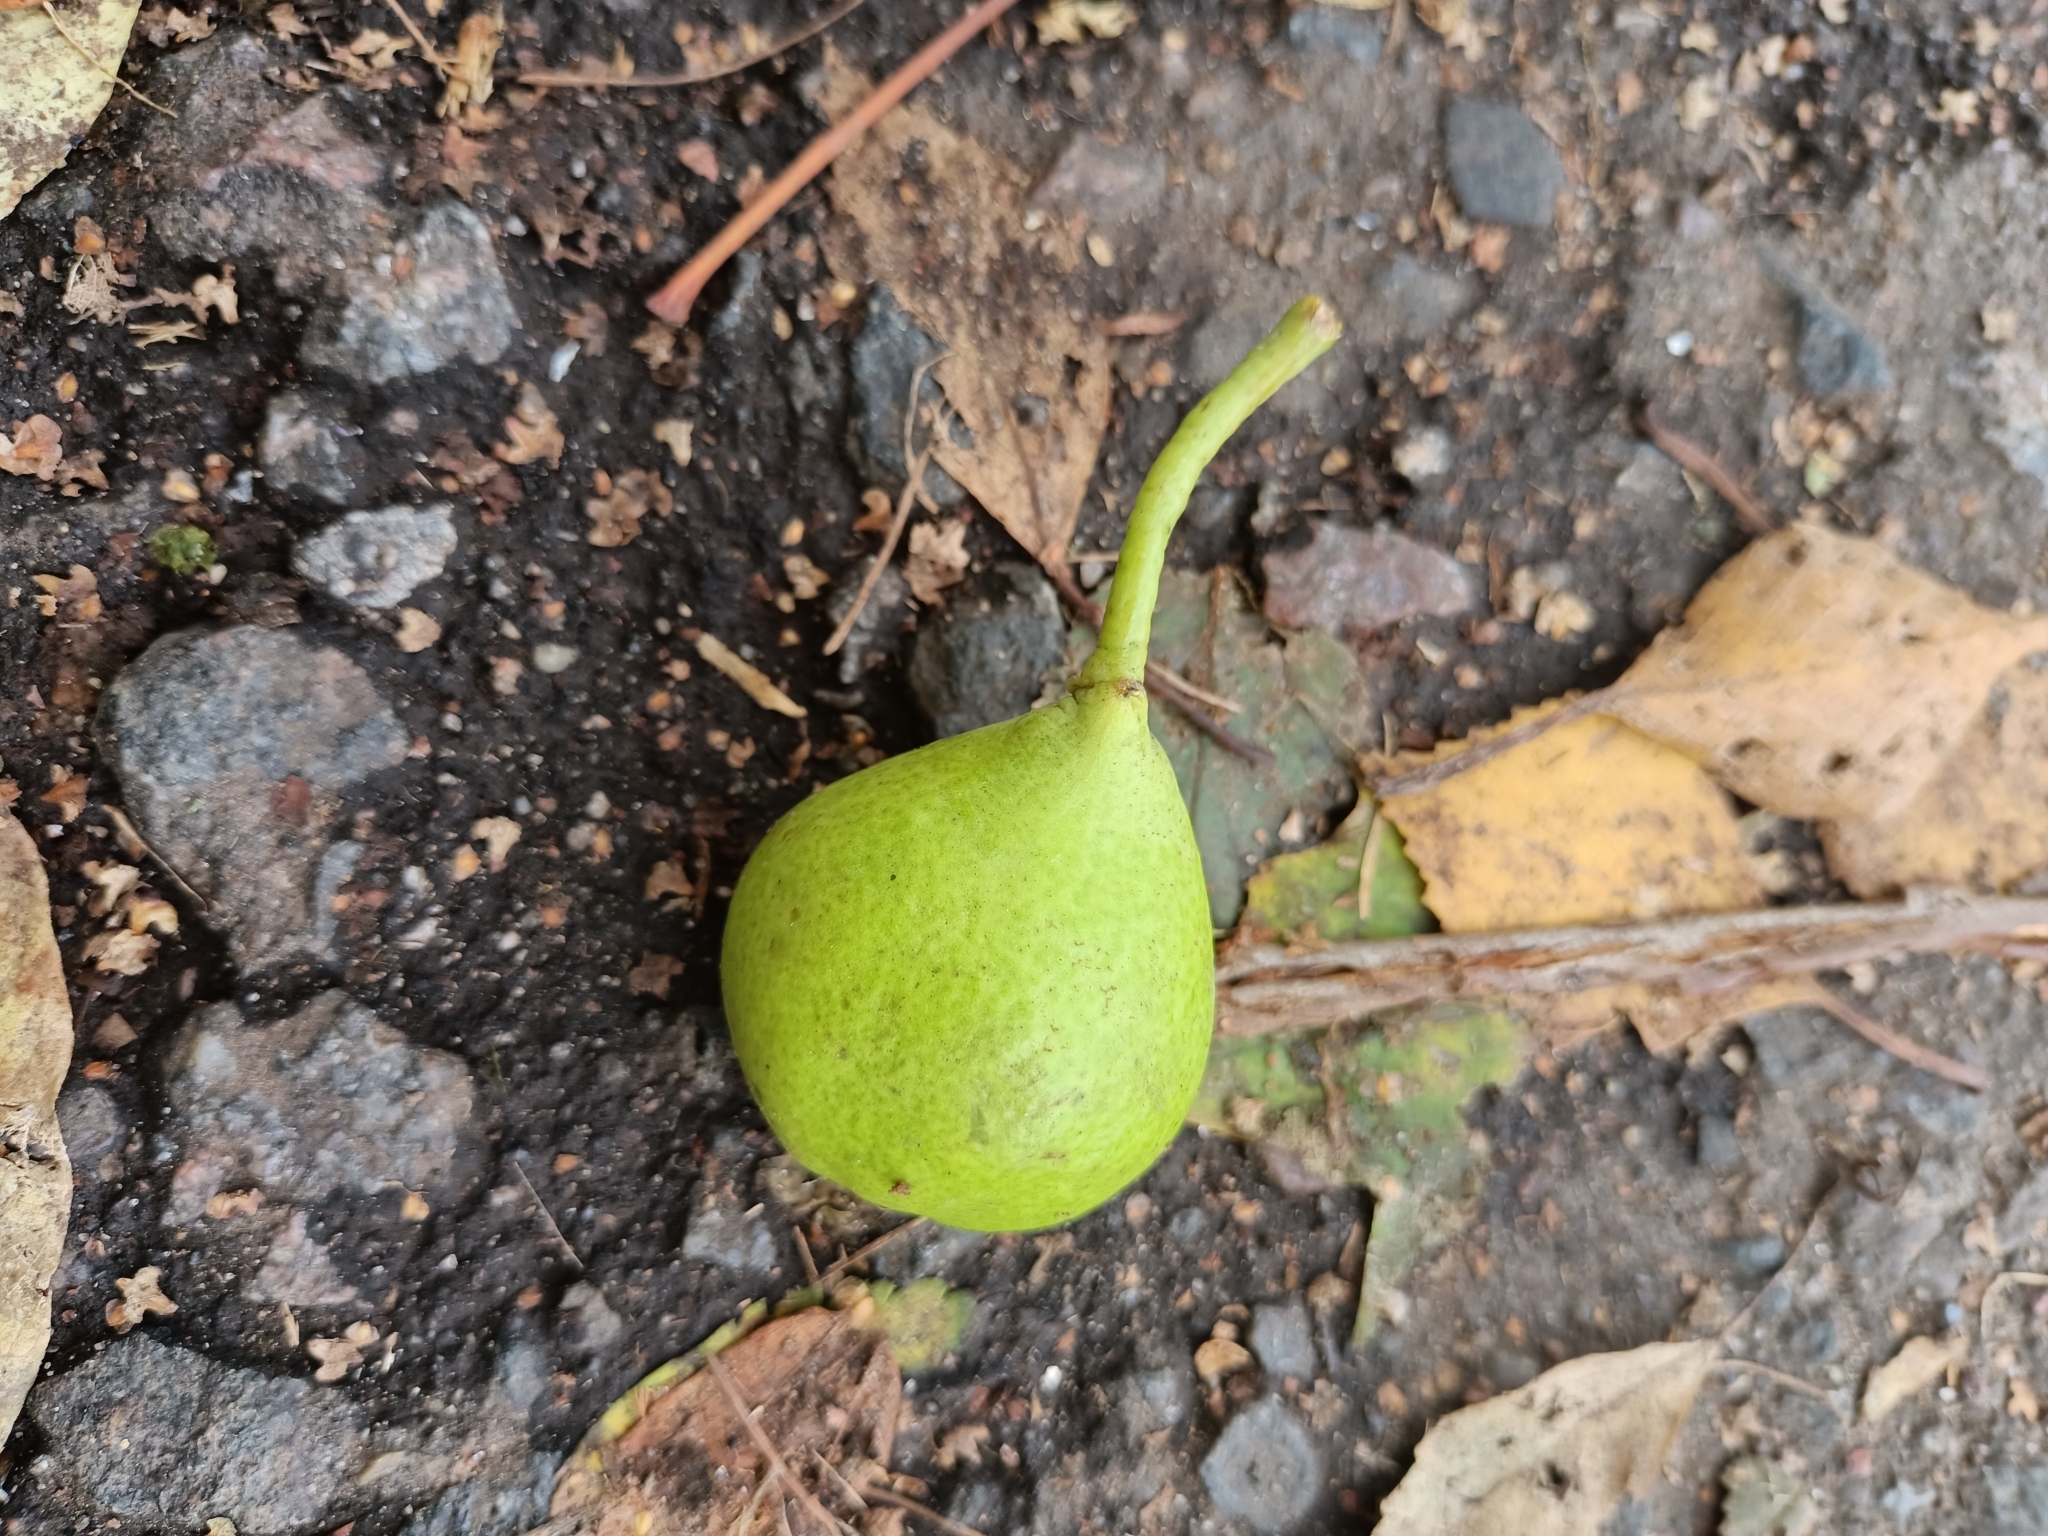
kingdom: Plantae
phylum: Tracheophyta
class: Magnoliopsida
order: Rosales
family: Rosaceae
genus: Pyrus
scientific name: Pyrus communis
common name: Pear
